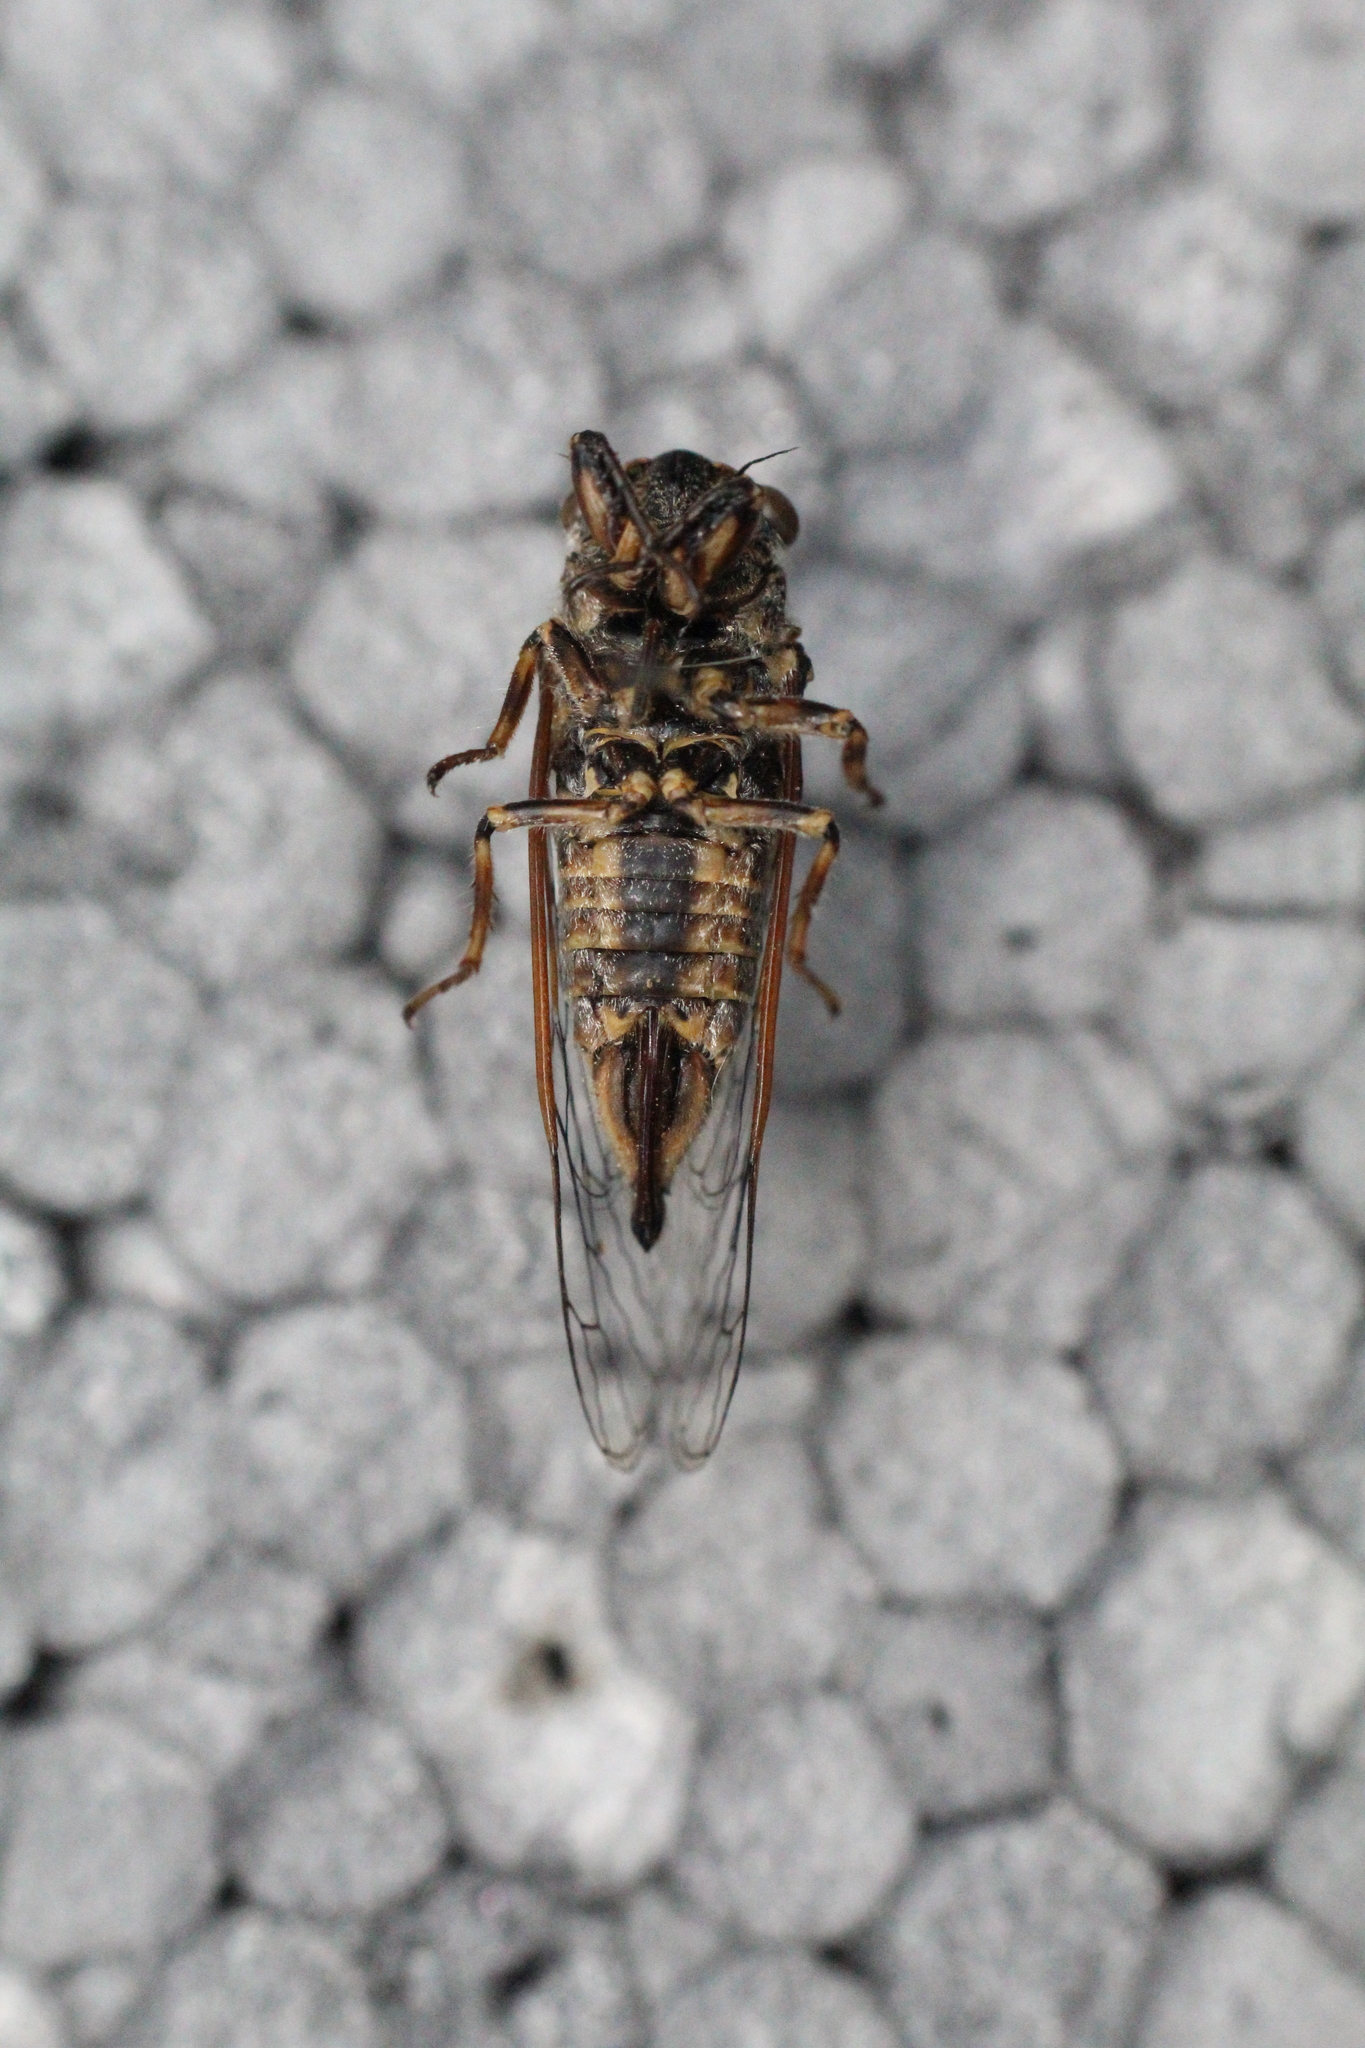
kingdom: Animalia
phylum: Arthropoda
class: Insecta
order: Hemiptera
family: Cicadidae
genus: Tettigettula
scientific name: Tettigettula pygmea
